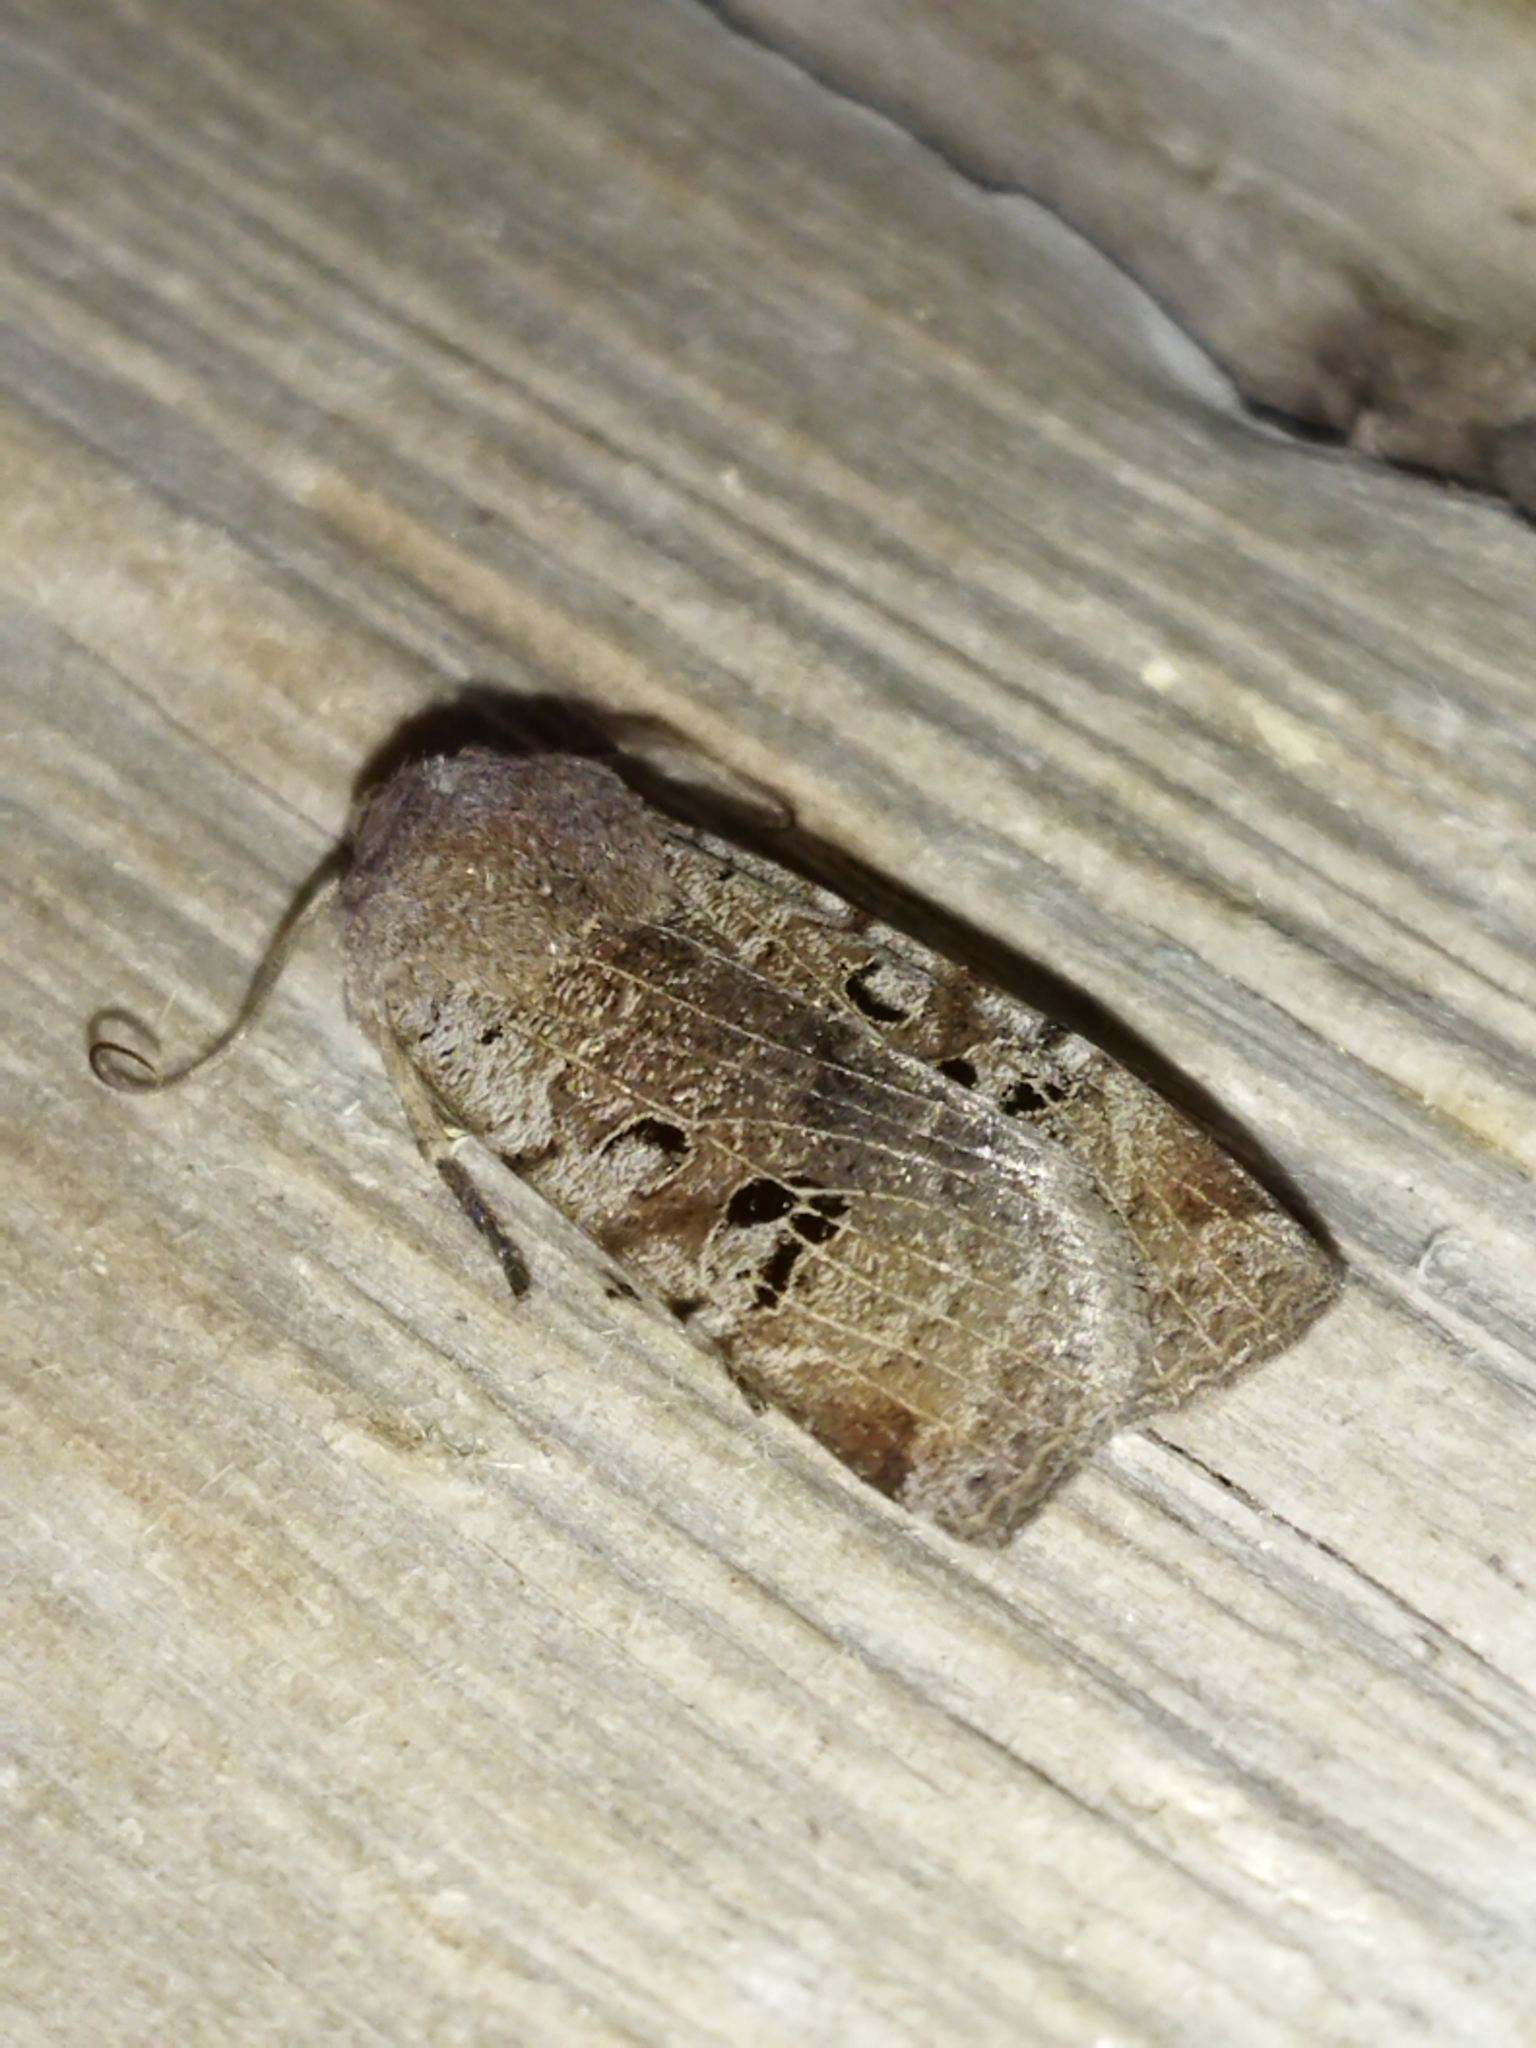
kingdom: Animalia
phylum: Arthropoda
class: Insecta
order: Lepidoptera
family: Noctuidae
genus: Conistra
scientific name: Conistra rubiginosa
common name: Black-spotted chestnut
